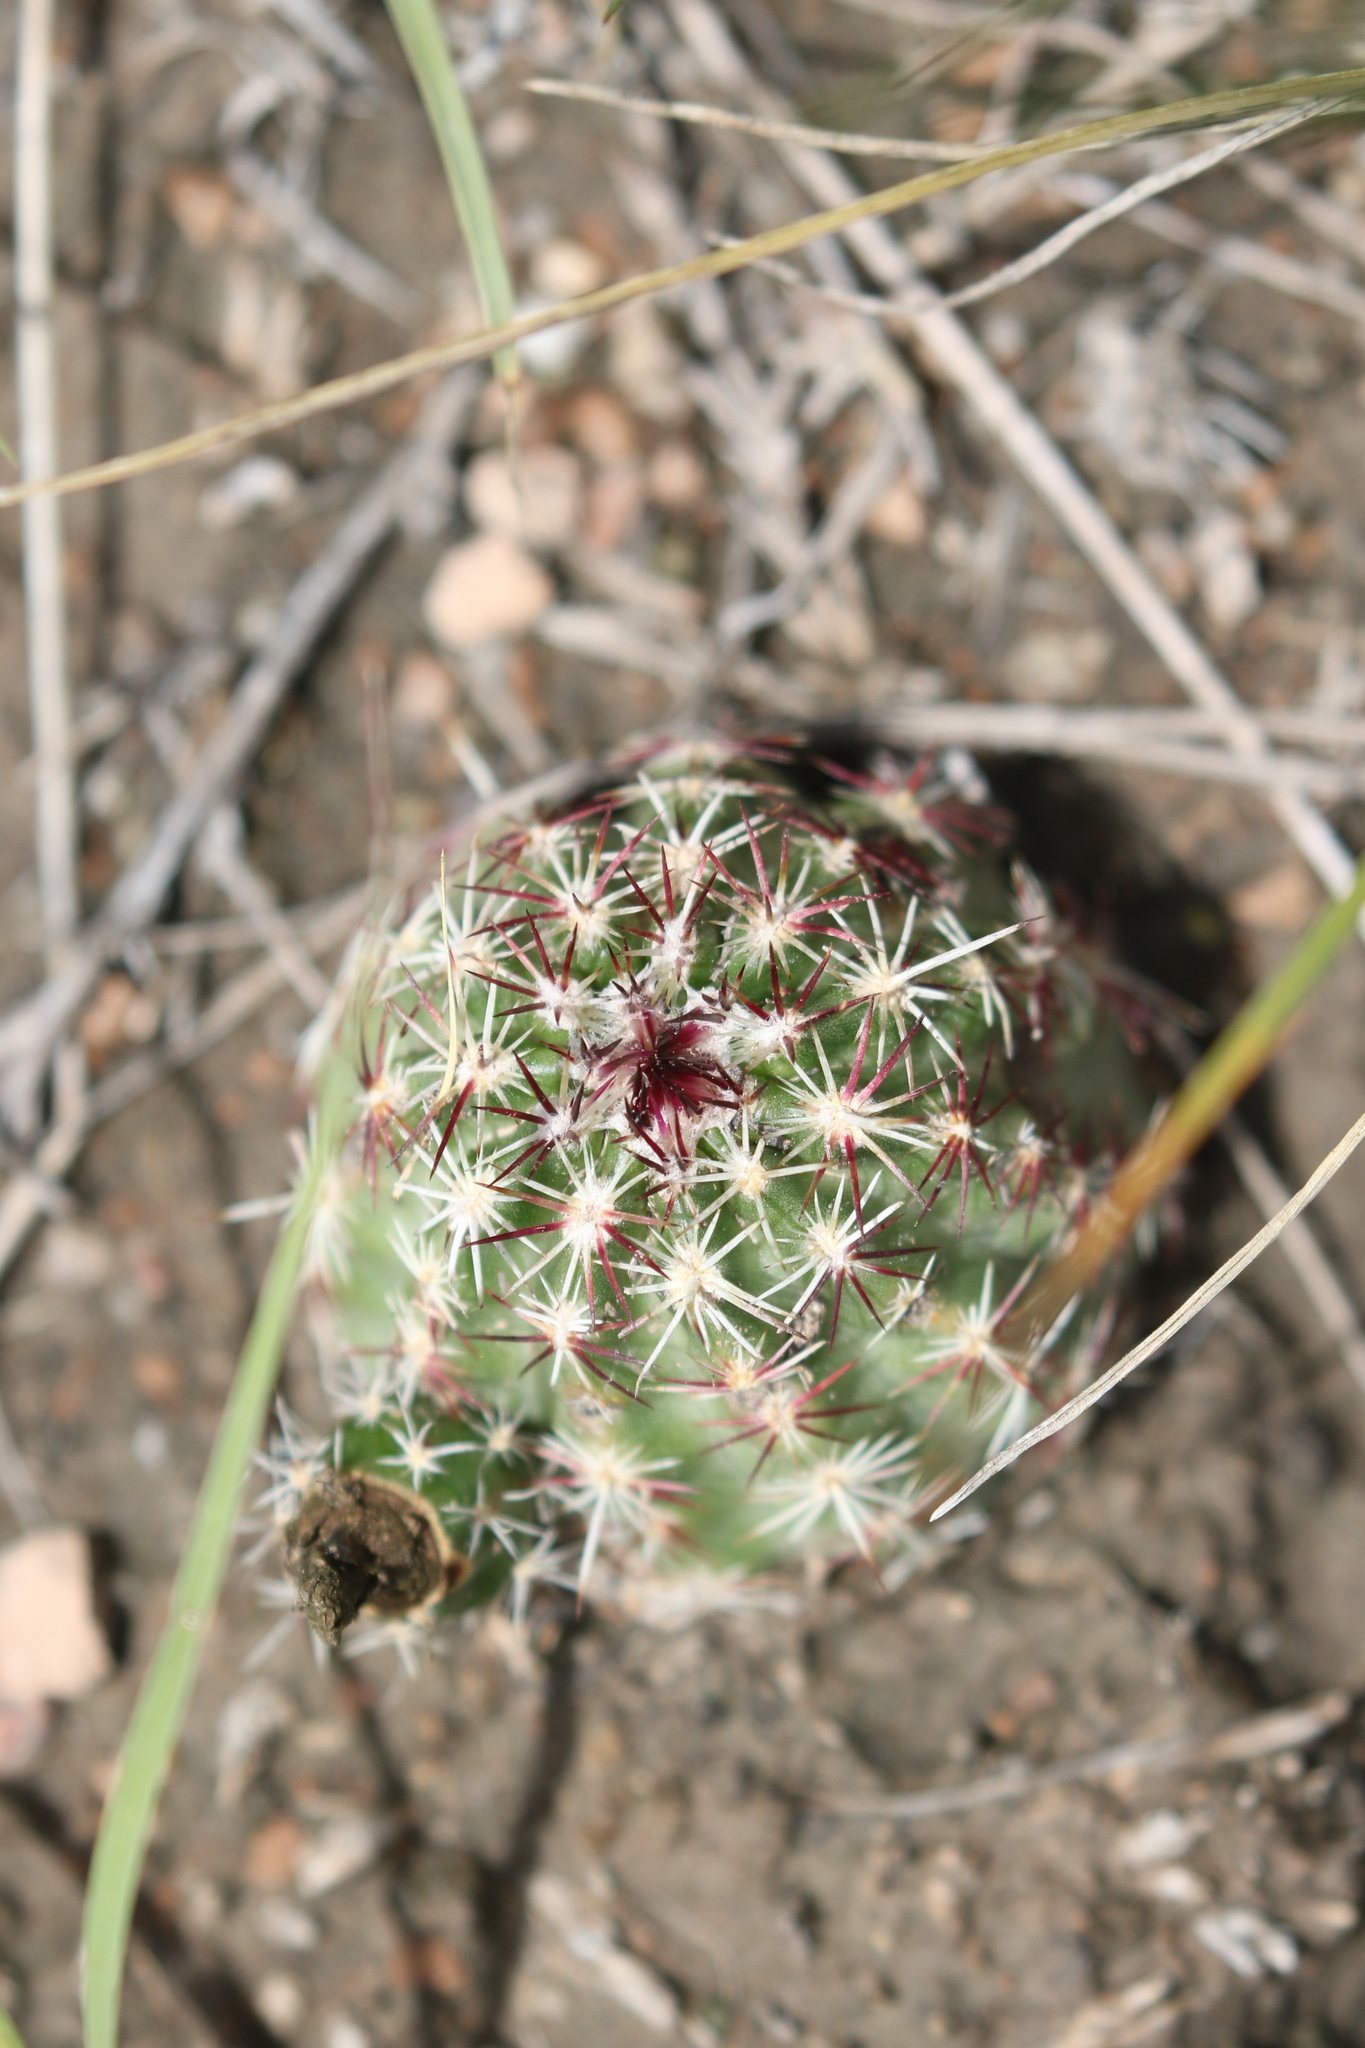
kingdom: Plantae
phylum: Tracheophyta
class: Magnoliopsida
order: Caryophyllales
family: Cactaceae
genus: Echinocereus
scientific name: Echinocereus viridiflorus
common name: Nylon hedgehog cactus
